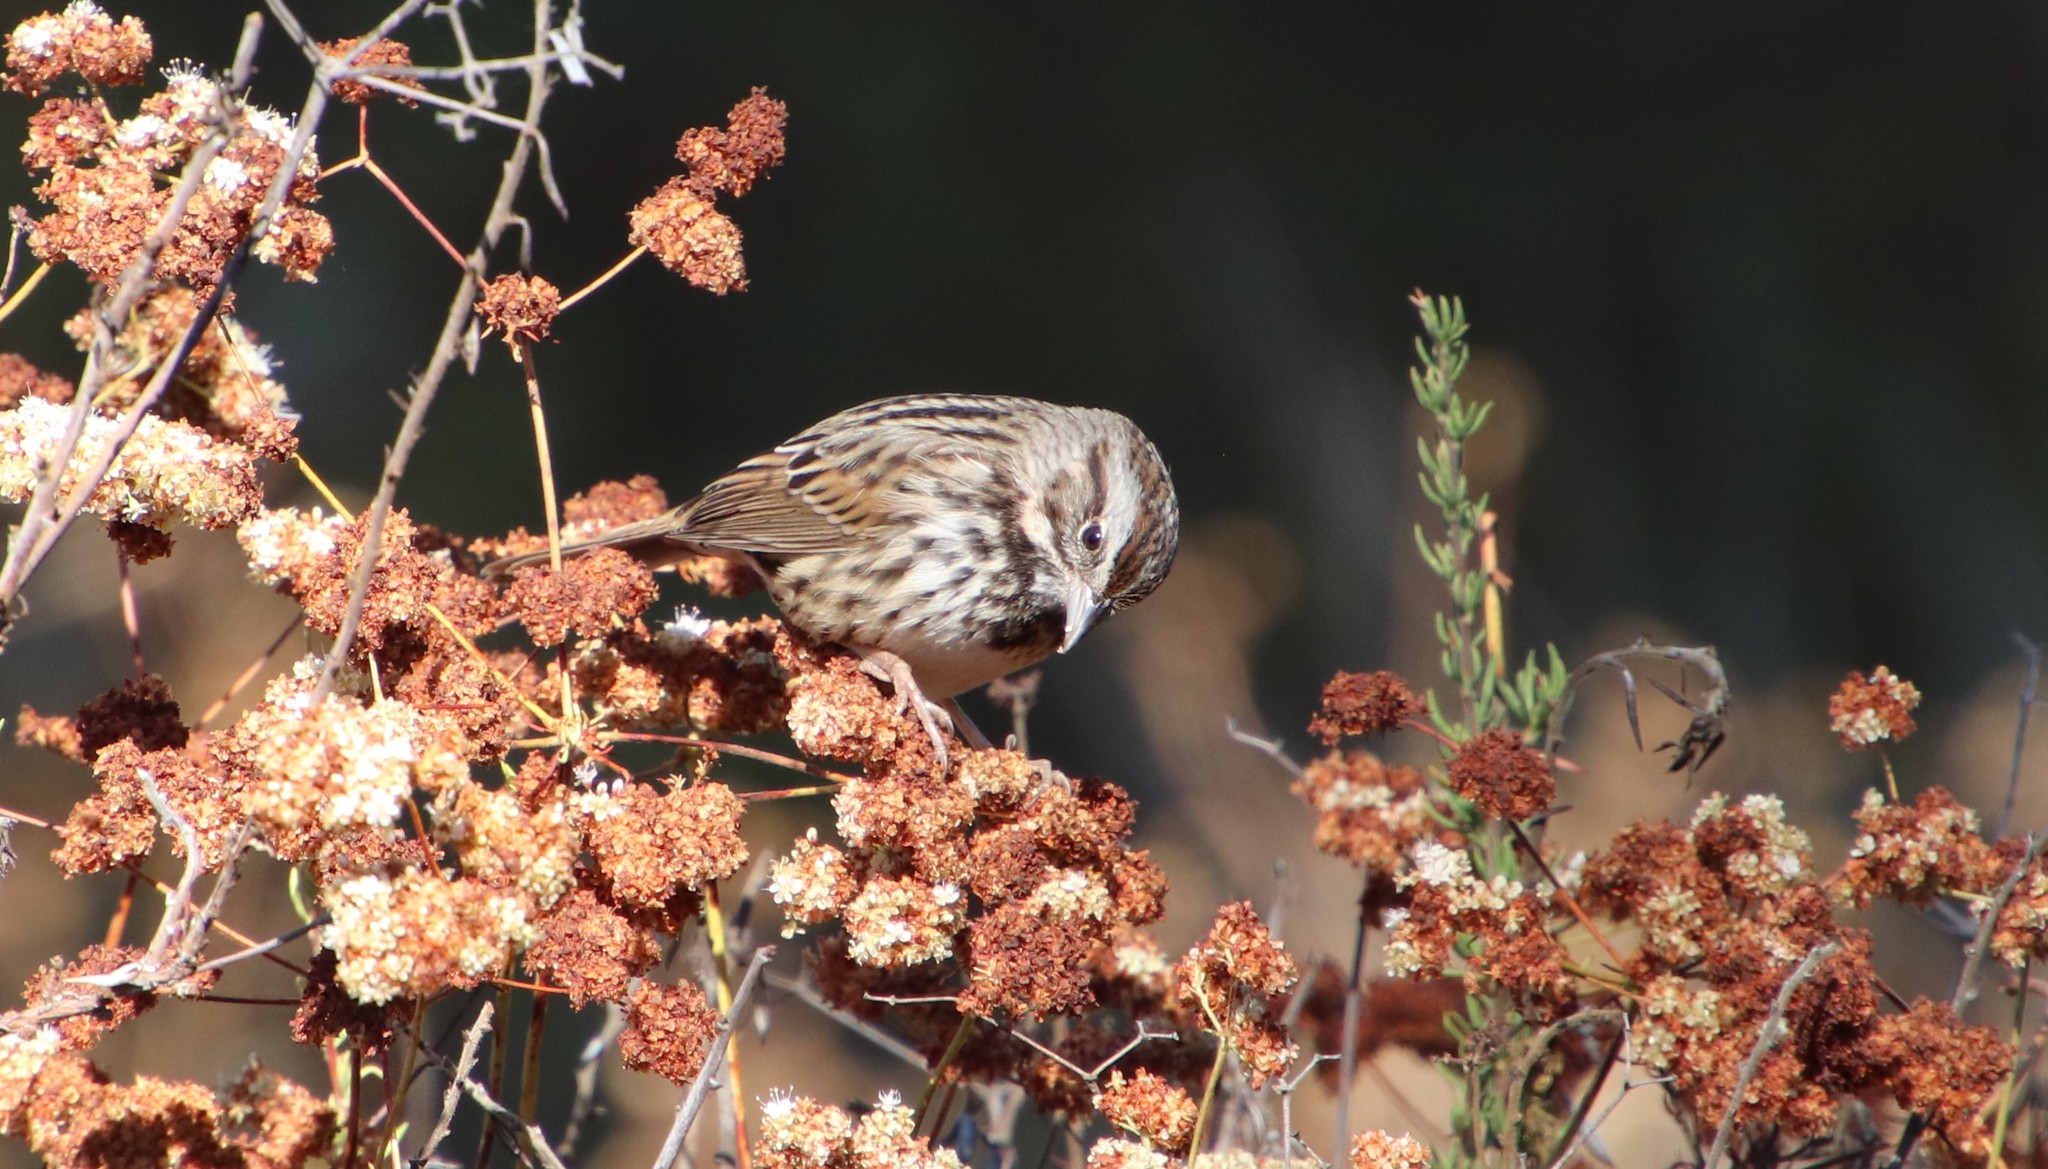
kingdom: Animalia
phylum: Chordata
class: Aves
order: Passeriformes
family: Passerellidae
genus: Melospiza
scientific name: Melospiza melodia
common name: Song sparrow
